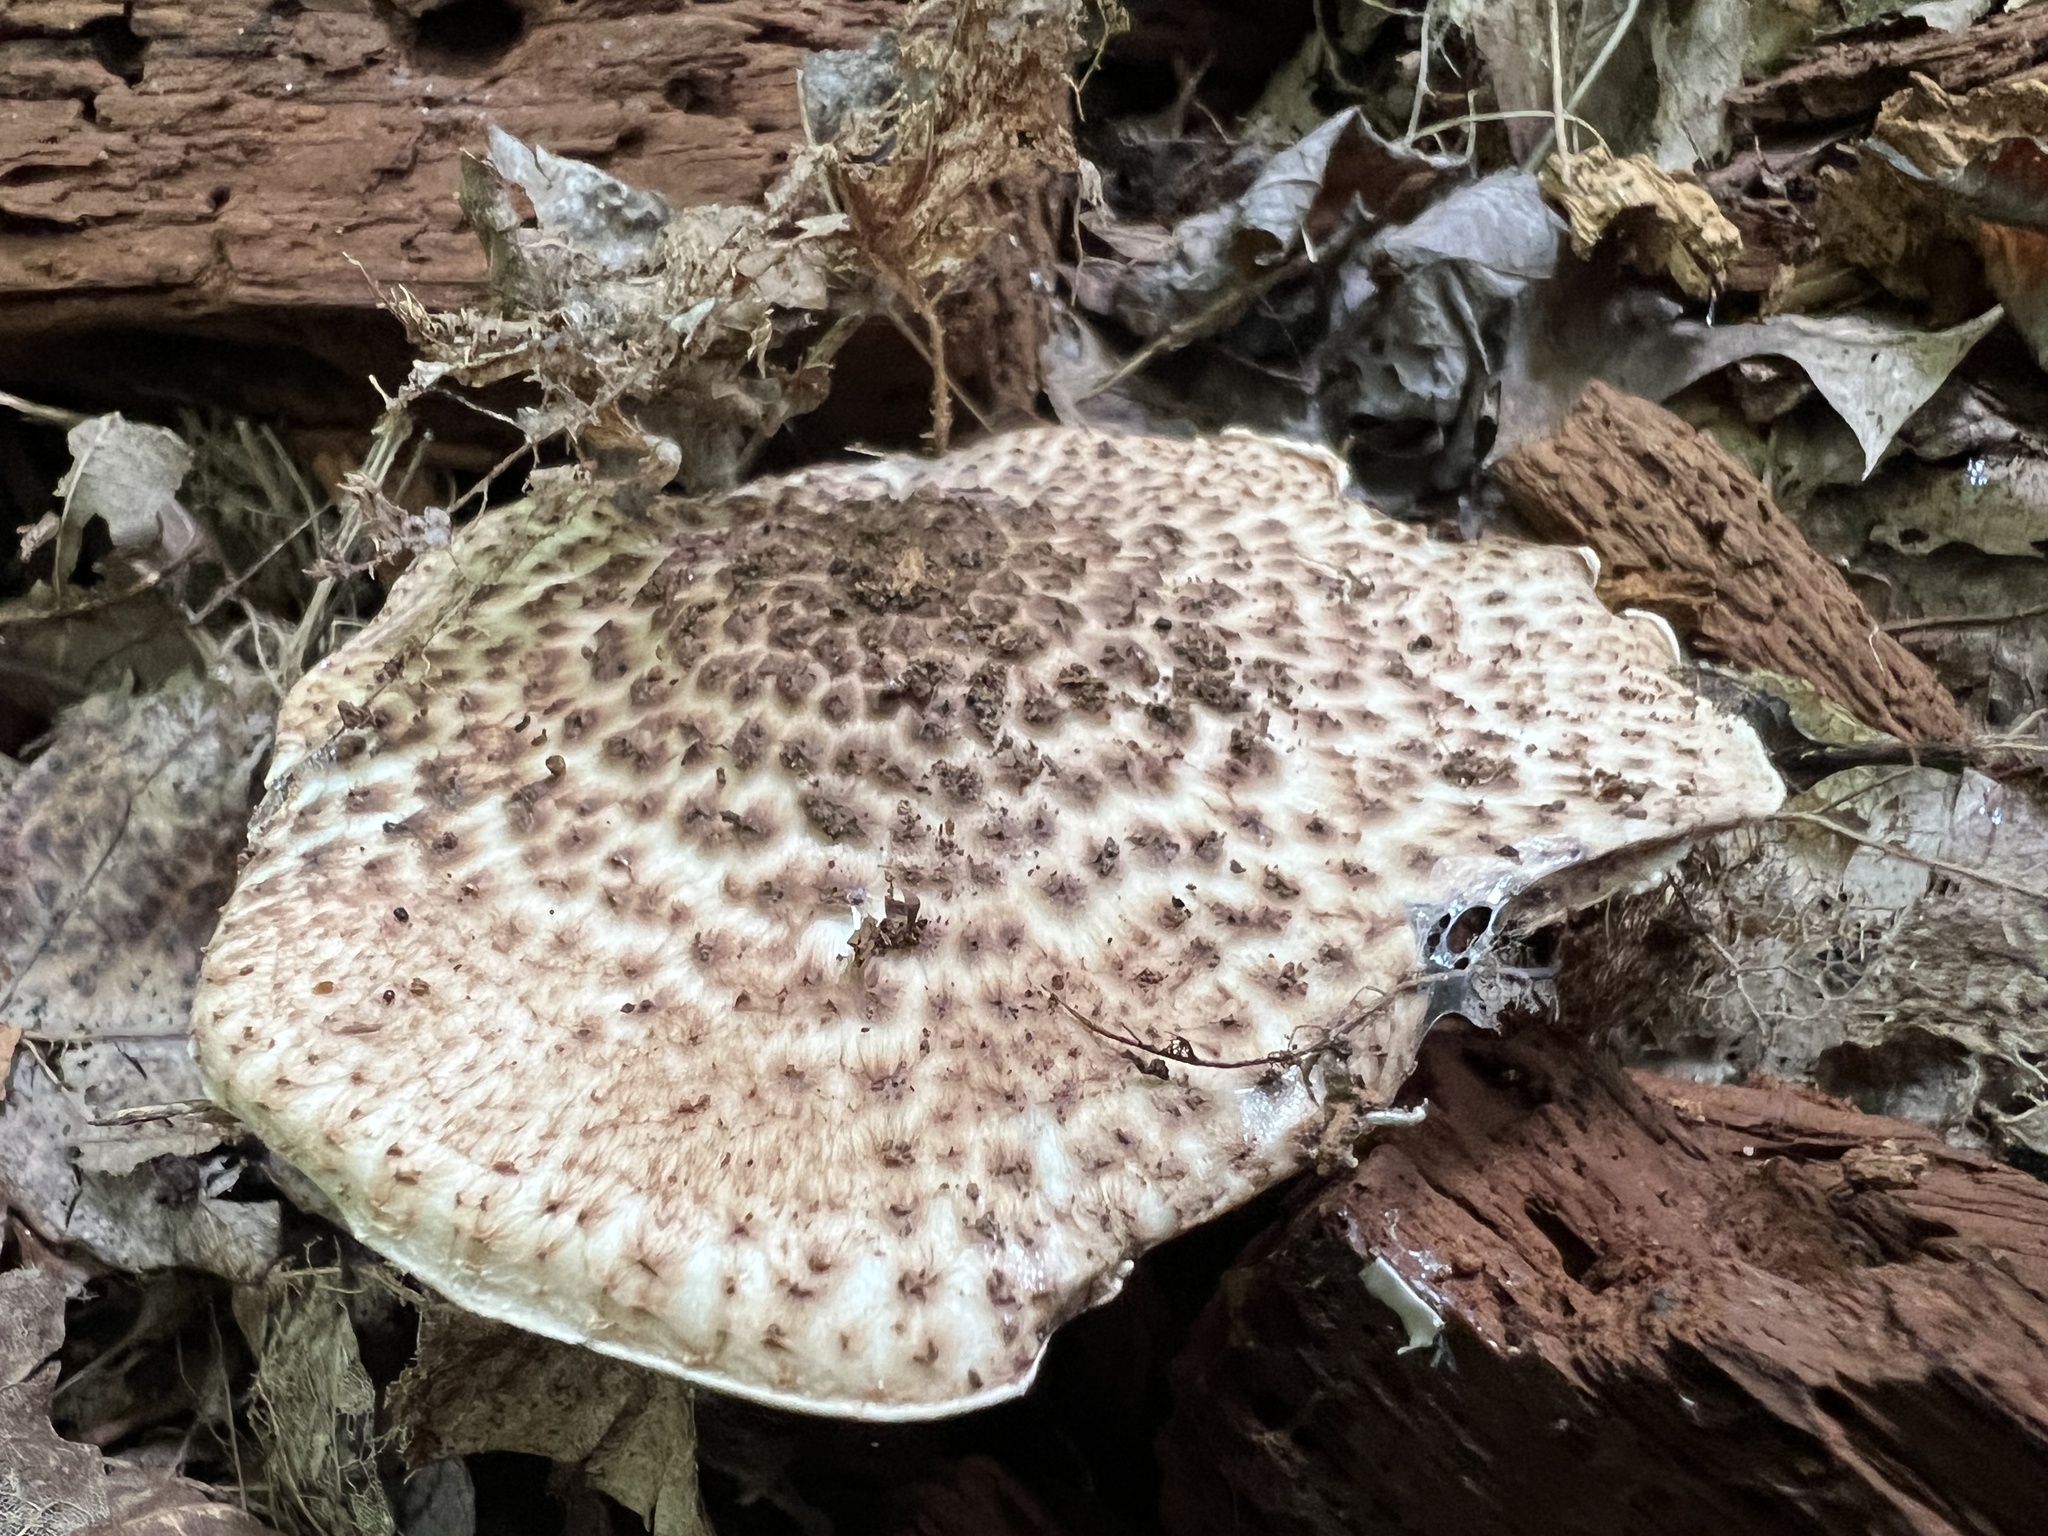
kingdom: Fungi
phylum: Basidiomycota
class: Agaricomycetes
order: Agaricales
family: Agaricaceae
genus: Echinoderma
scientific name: Echinoderma asperum
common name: Freckled dapperling
